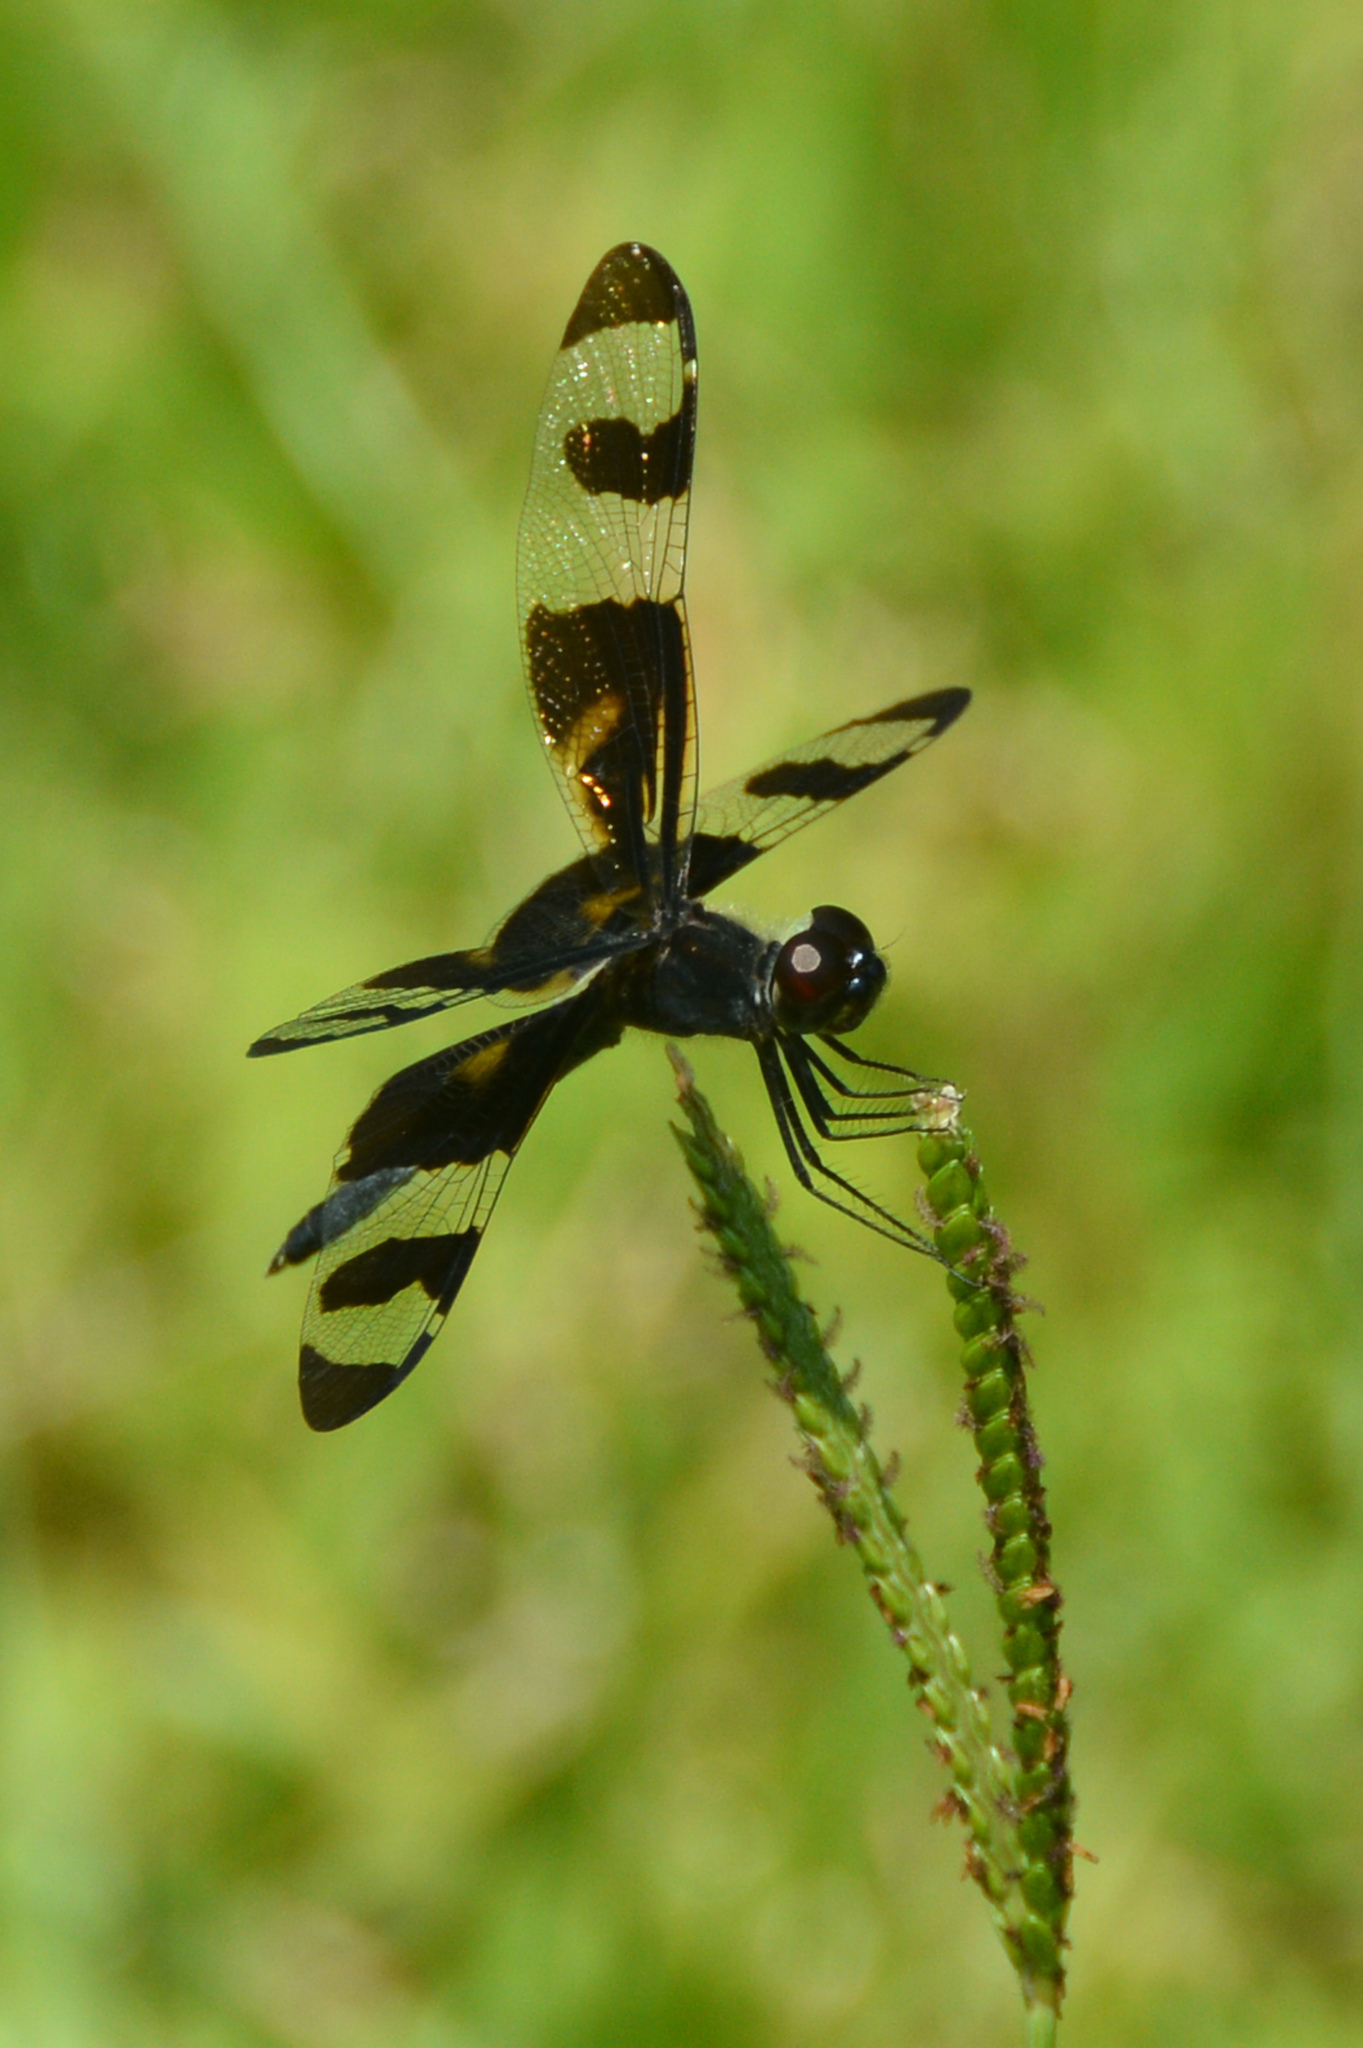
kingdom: Animalia
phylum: Arthropoda
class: Insecta
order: Odonata
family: Libellulidae
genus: Celithemis
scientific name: Celithemis fasciata
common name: Banded pennant
